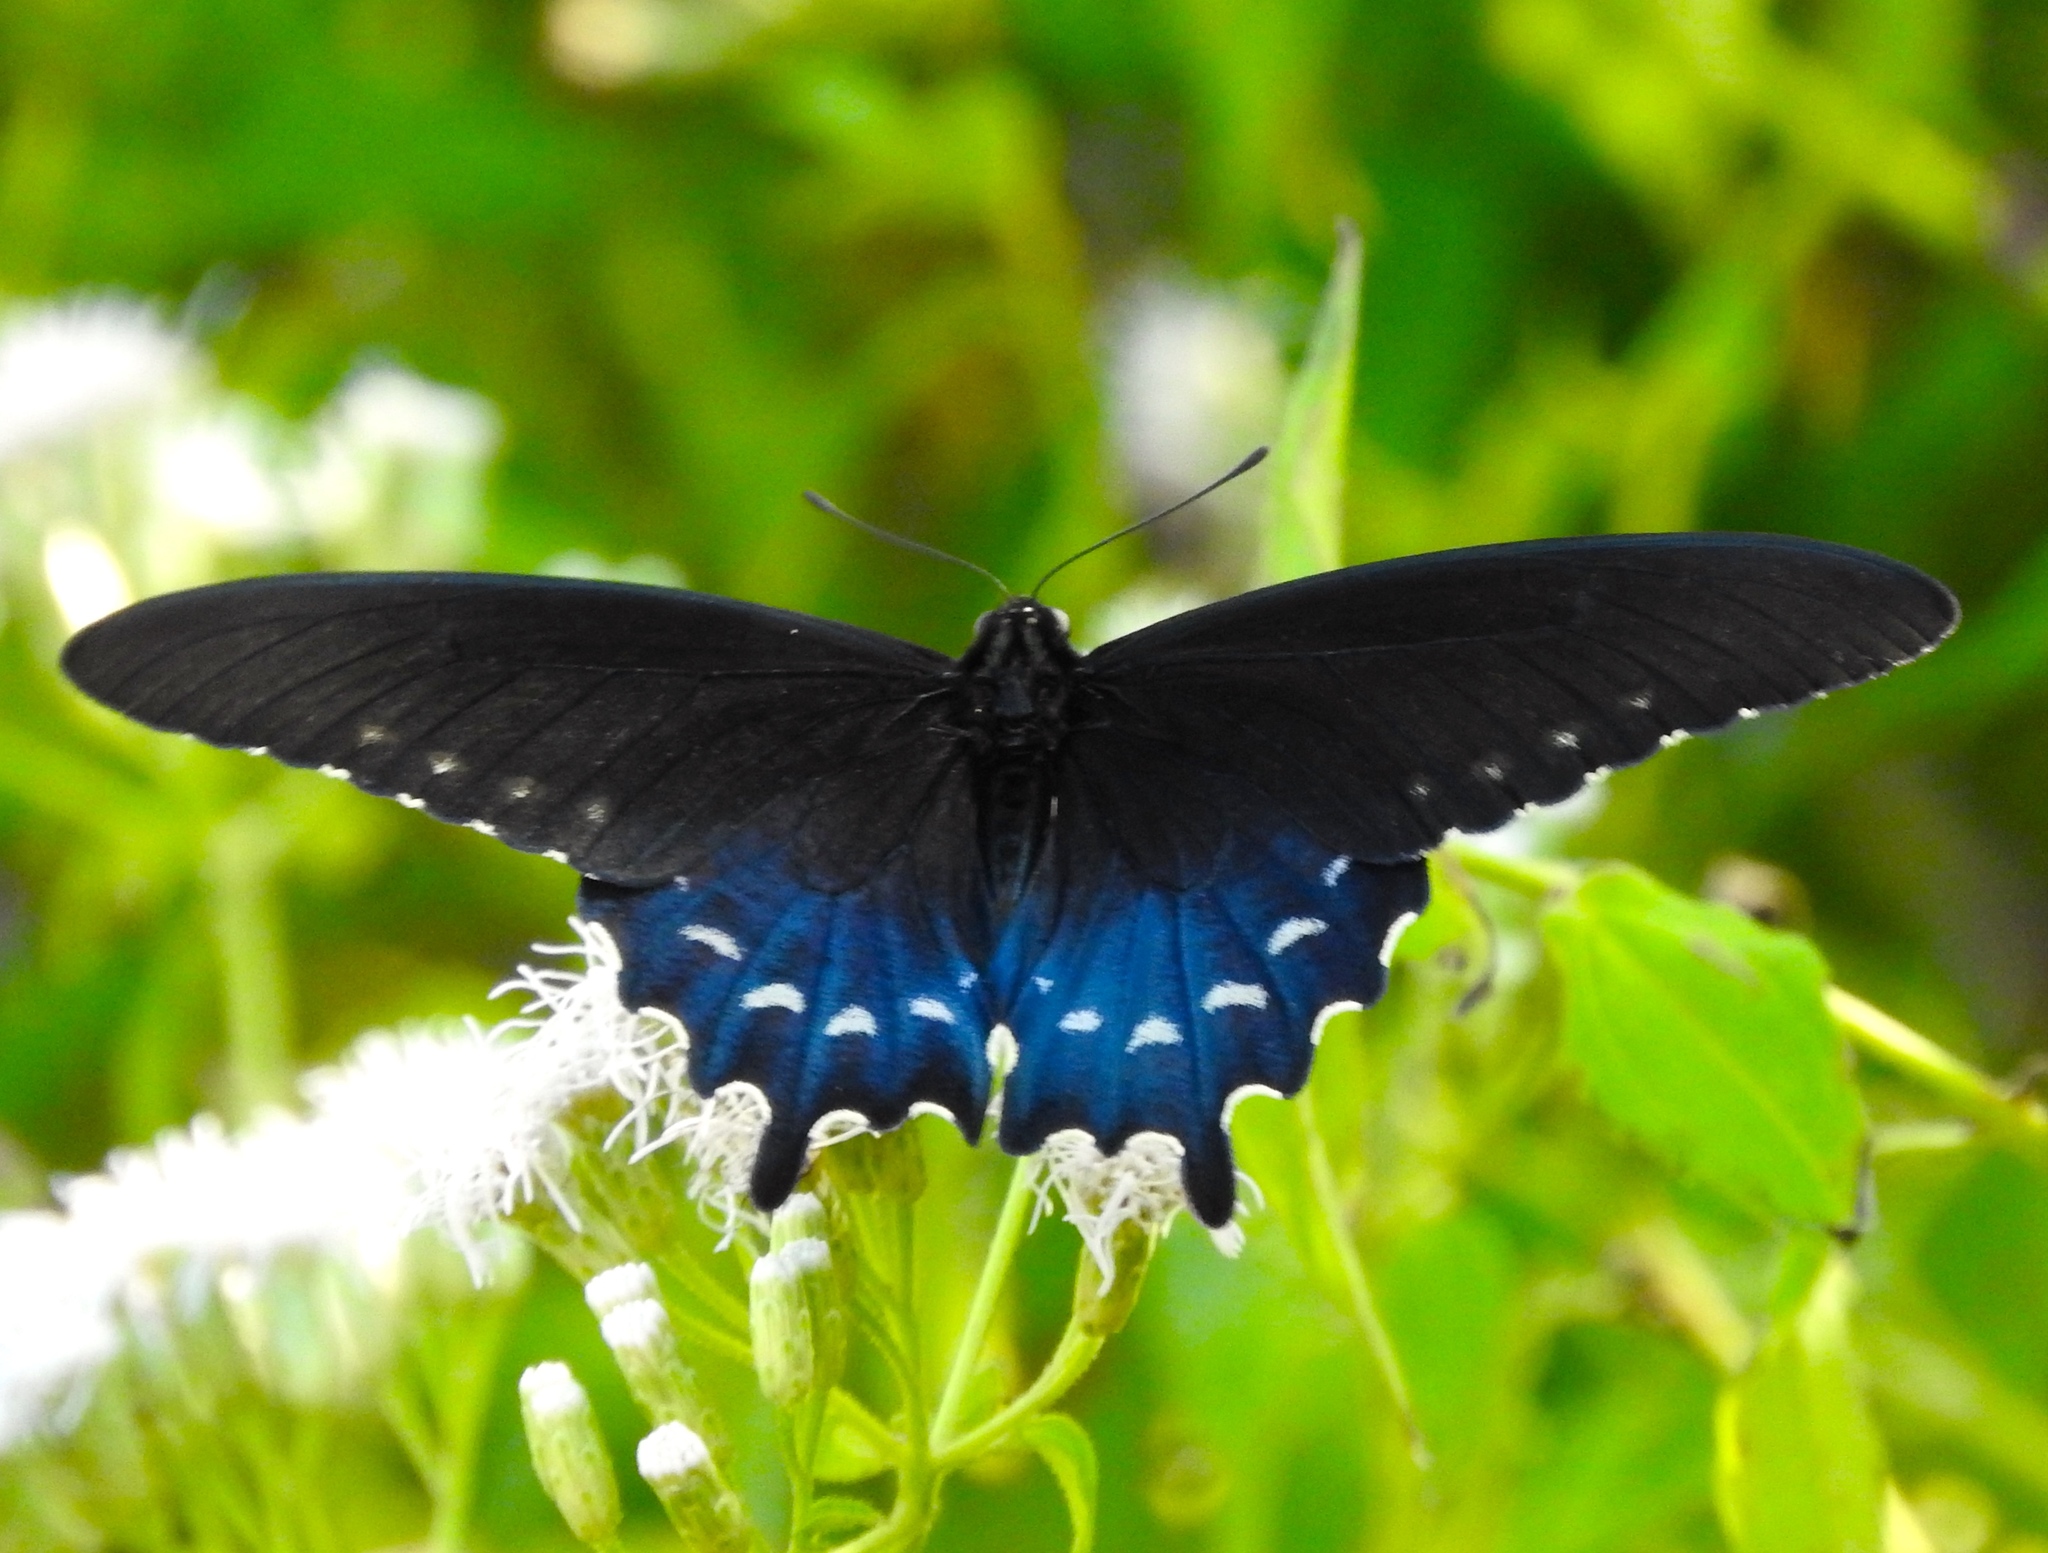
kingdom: Animalia
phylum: Arthropoda
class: Insecta
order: Lepidoptera
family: Papilionidae
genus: Battus
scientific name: Battus philenor
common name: Pipevine swallowtail
